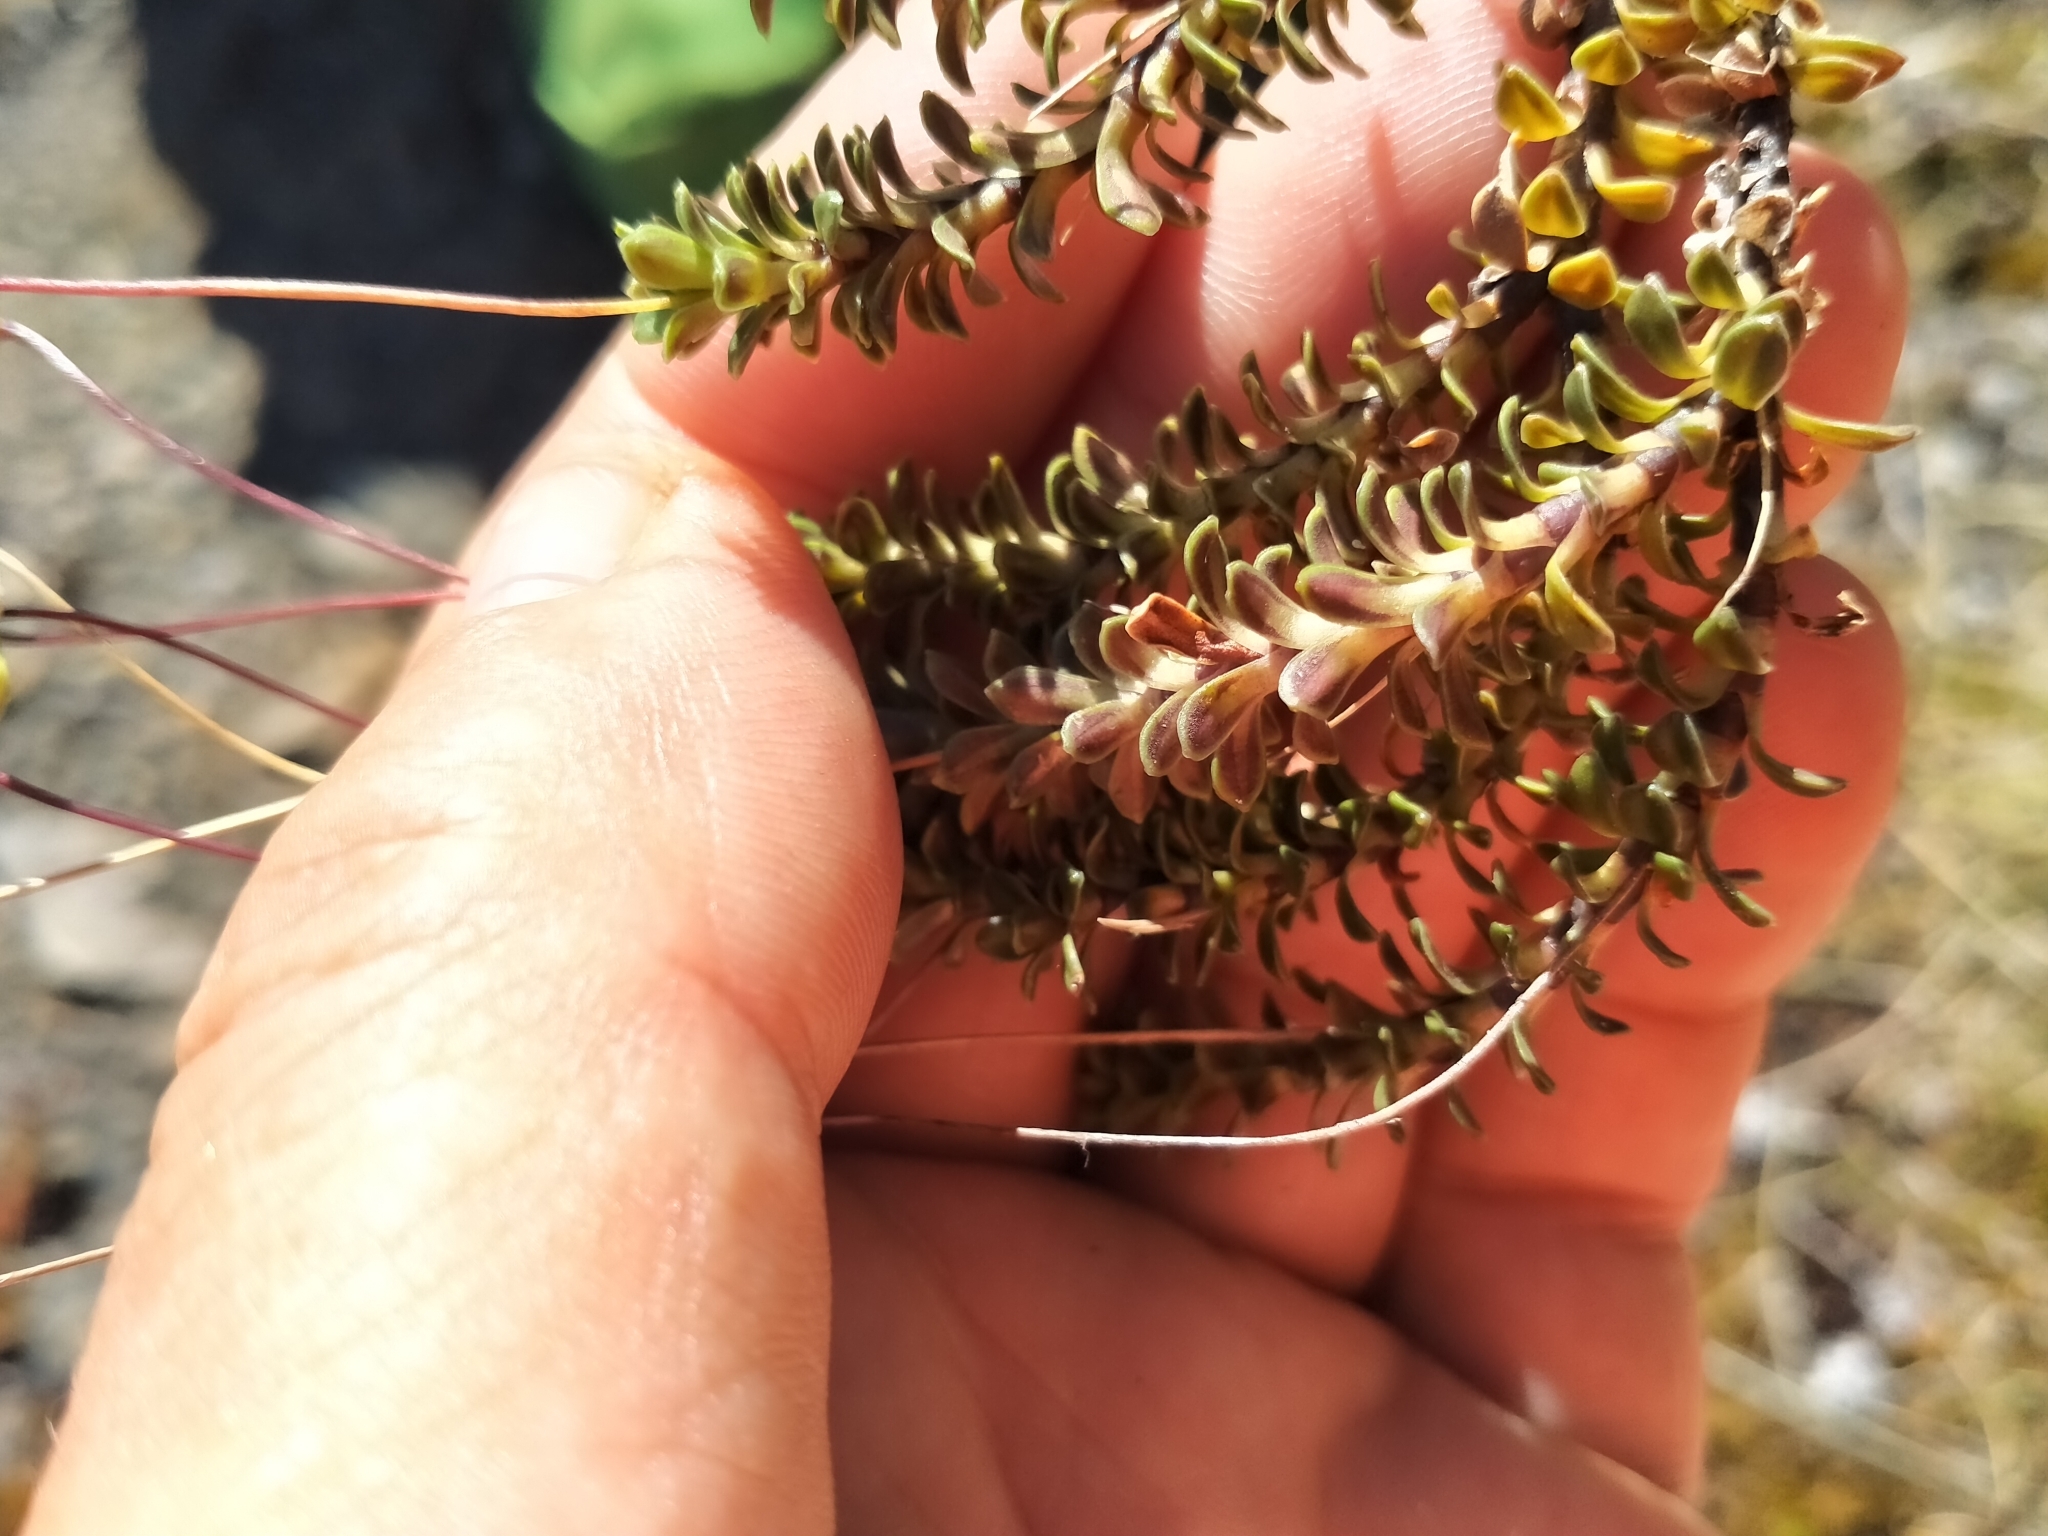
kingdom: Plantae
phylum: Tracheophyta
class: Magnoliopsida
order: Asterales
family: Stylidiaceae
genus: Forstera
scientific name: Forstera purpurata
